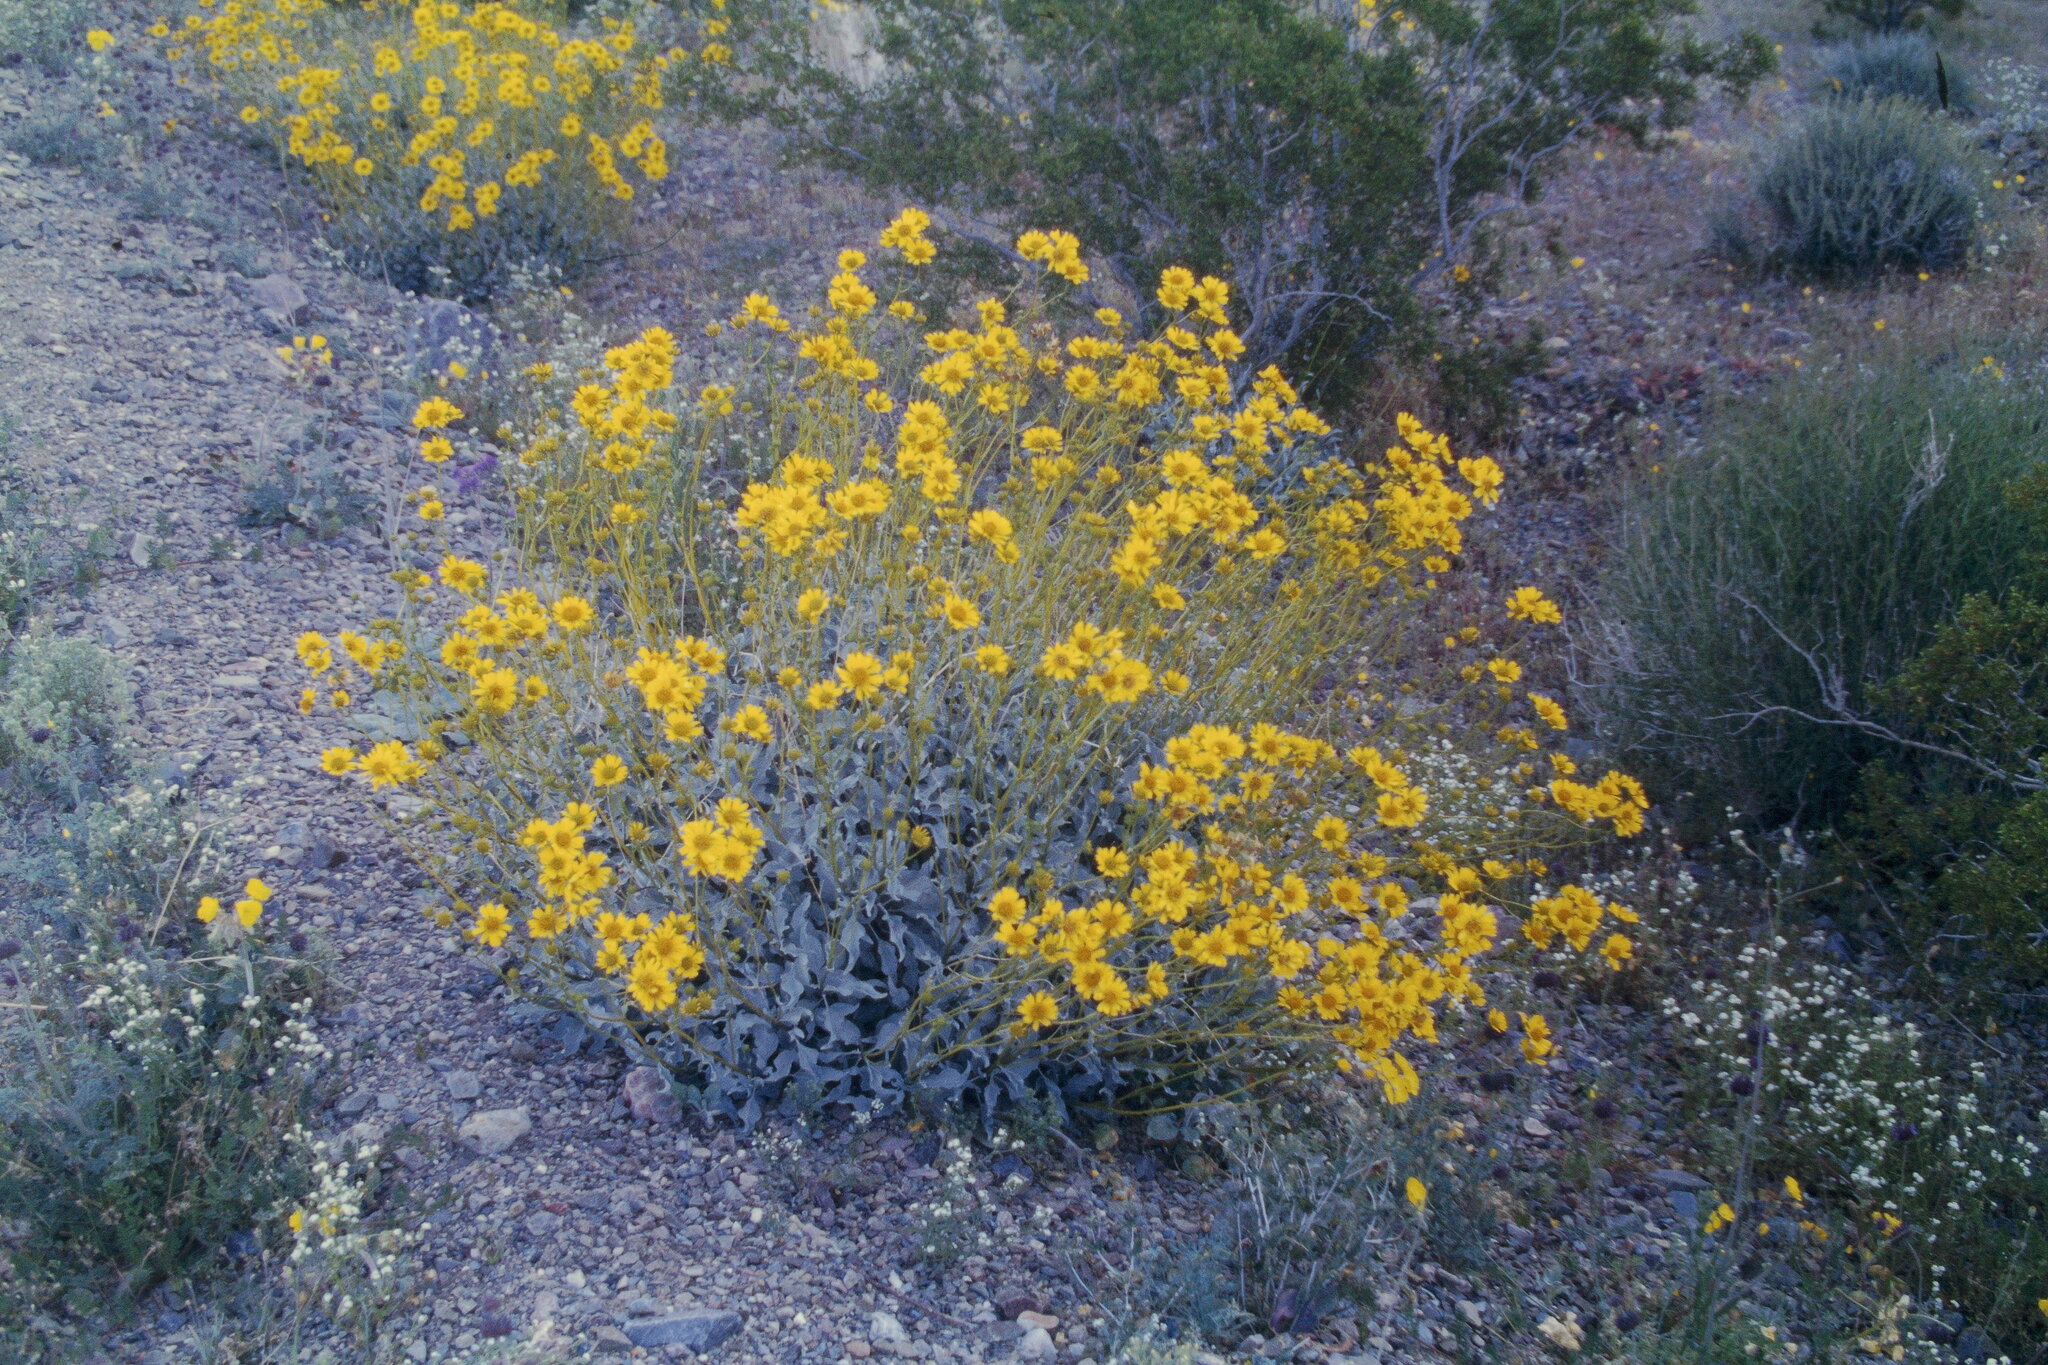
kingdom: Plantae
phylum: Tracheophyta
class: Magnoliopsida
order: Asterales
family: Asteraceae
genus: Encelia
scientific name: Encelia farinosa
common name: Brittlebush
